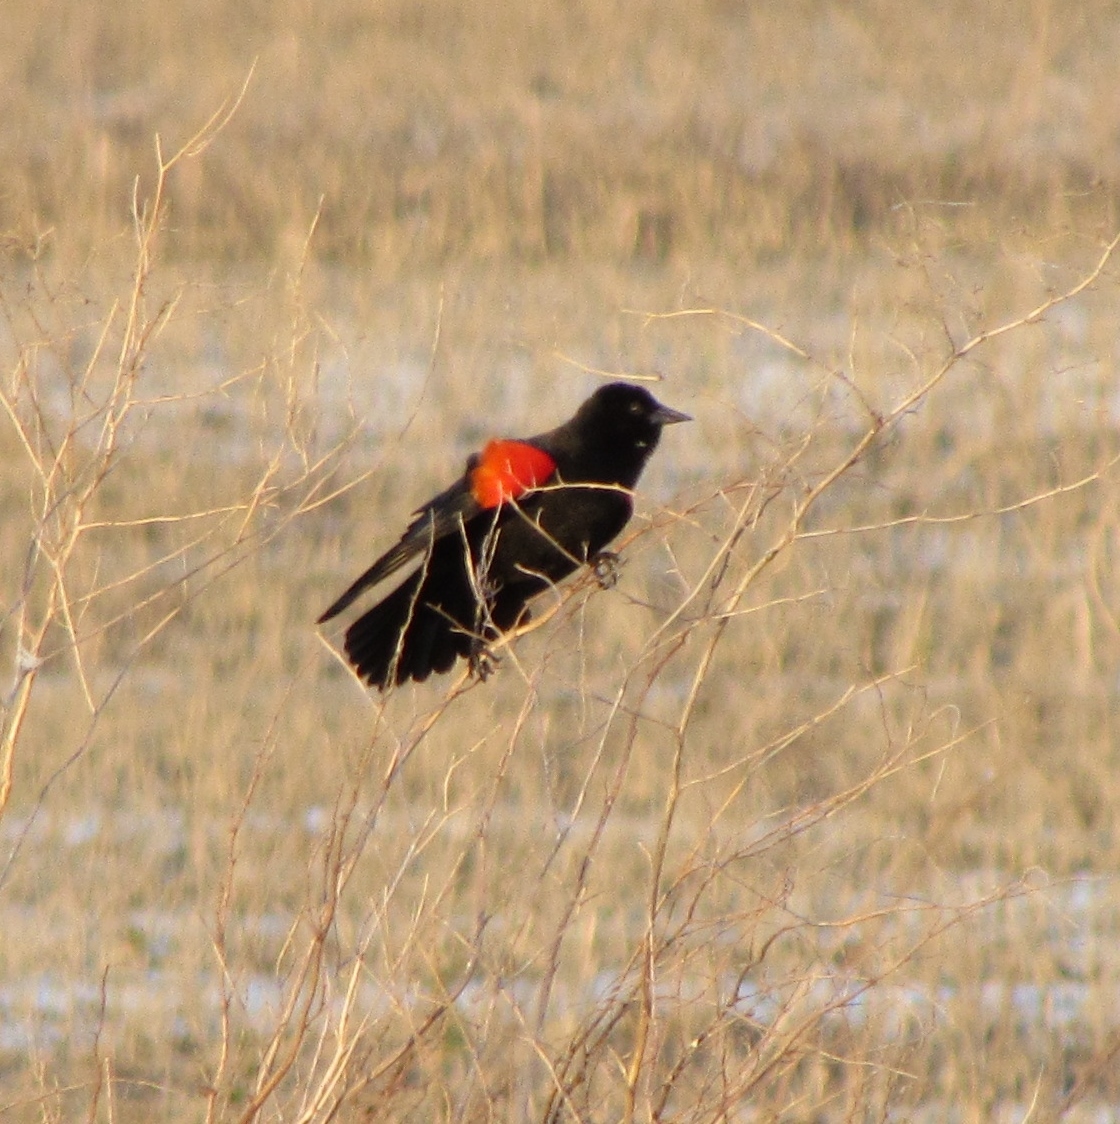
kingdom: Animalia
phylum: Chordata
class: Aves
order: Passeriformes
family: Icteridae
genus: Agelaius
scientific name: Agelaius phoeniceus
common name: Red-winged blackbird
